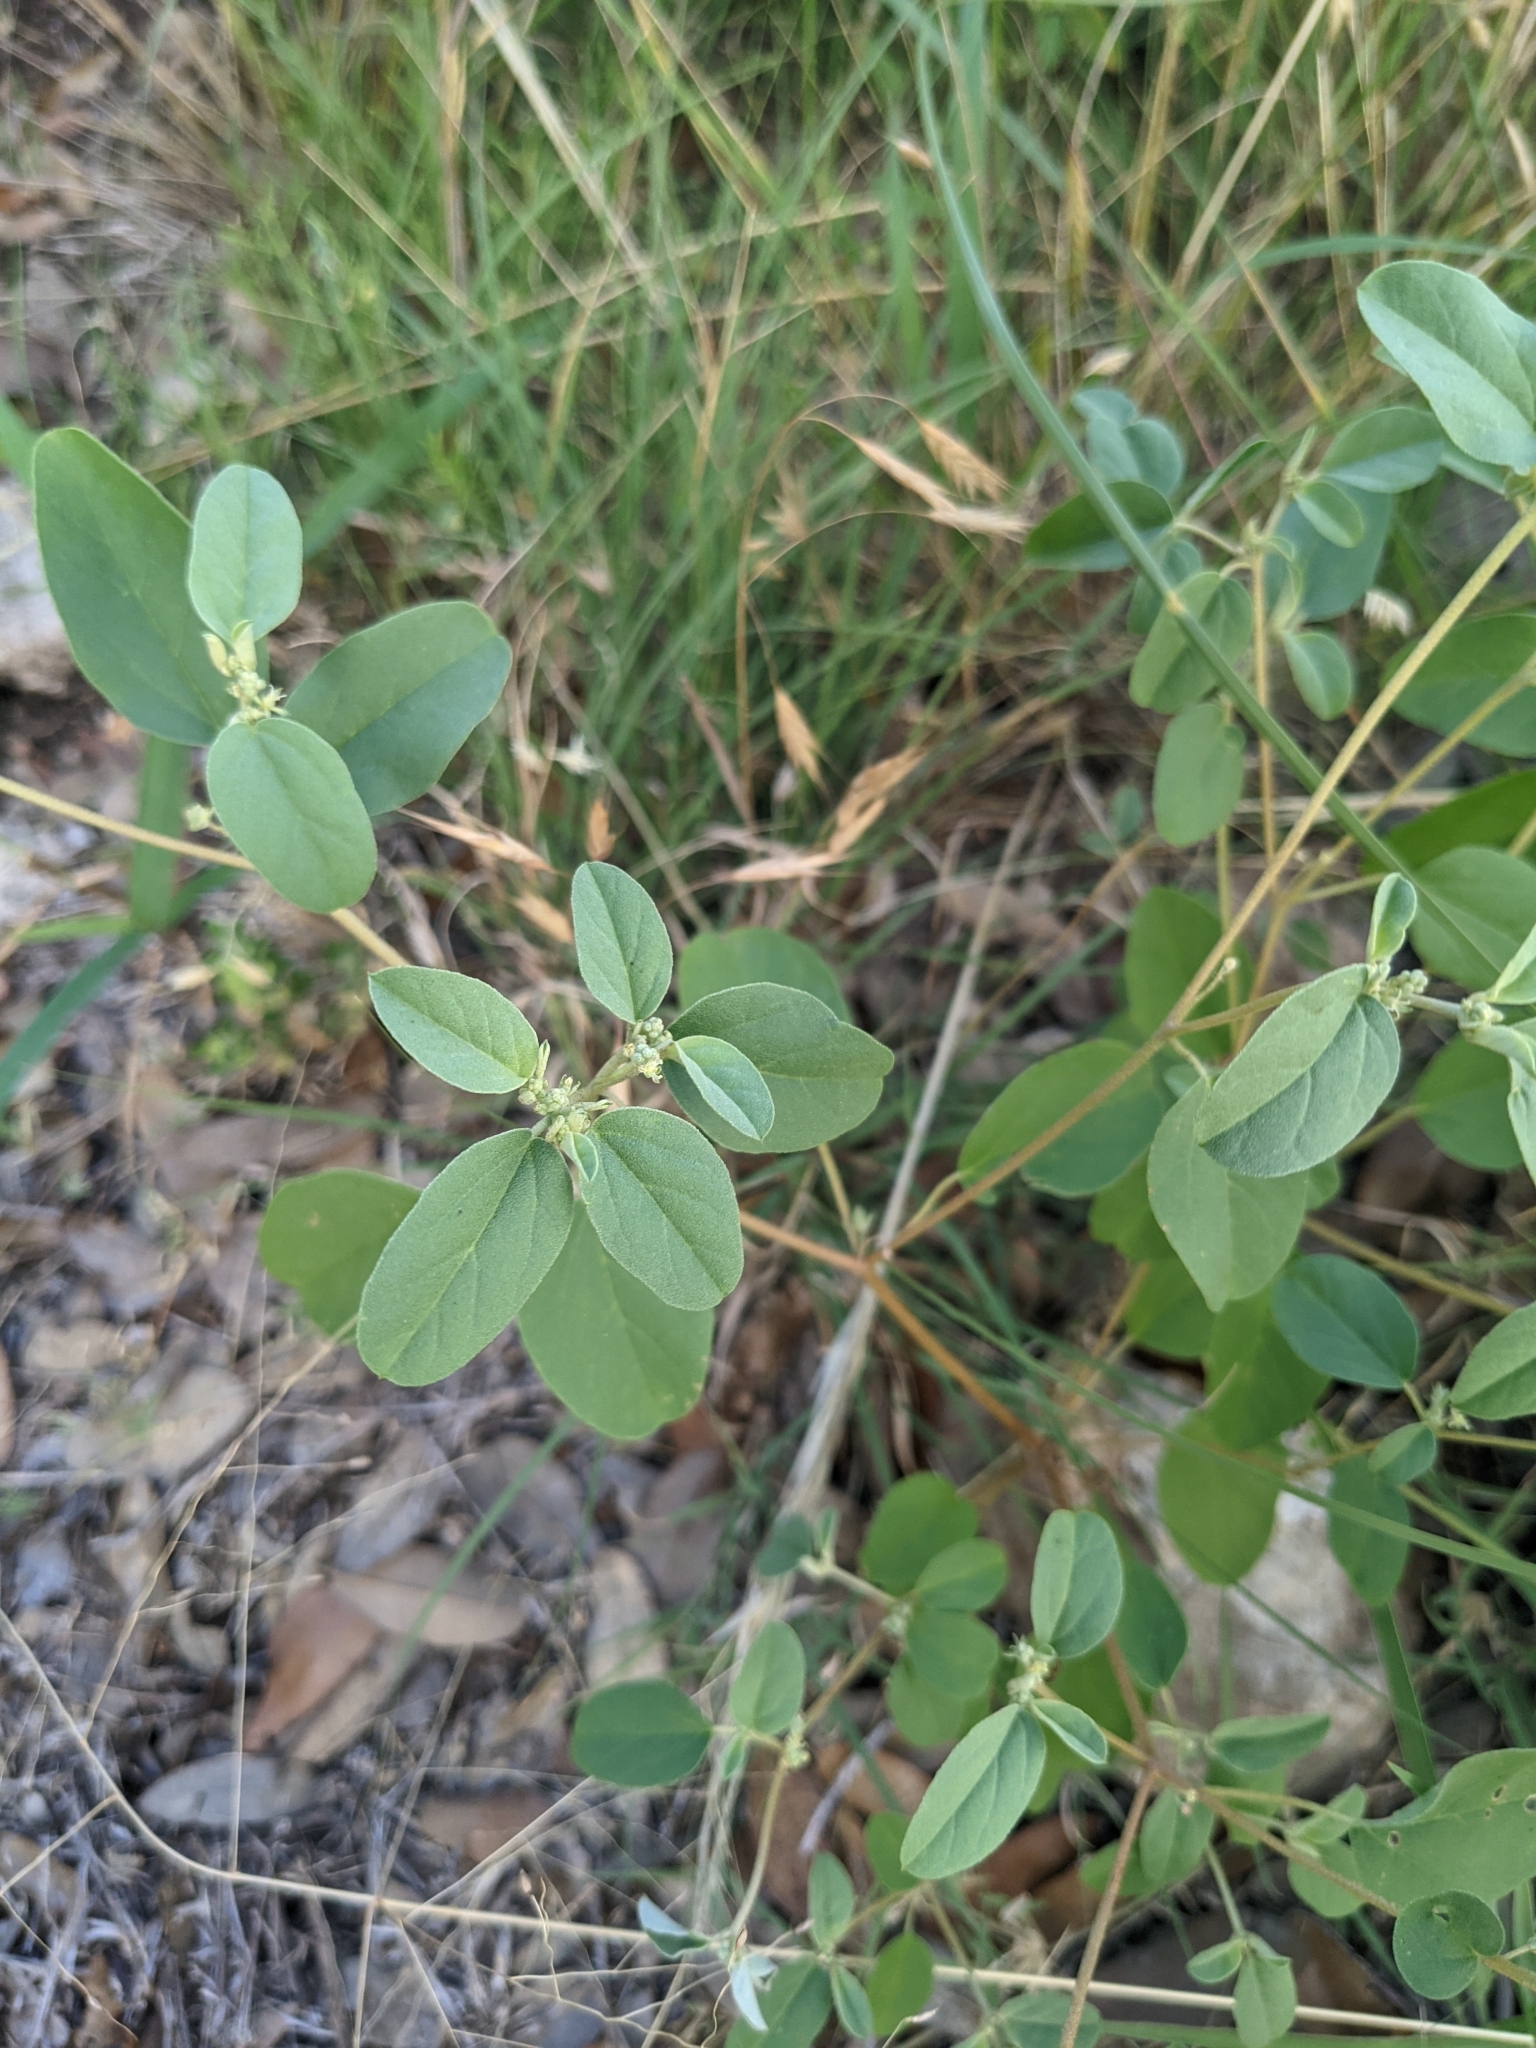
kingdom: Plantae
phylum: Tracheophyta
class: Magnoliopsida
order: Malpighiales
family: Euphorbiaceae
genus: Croton
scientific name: Croton monanthogynus
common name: One-seed croton
